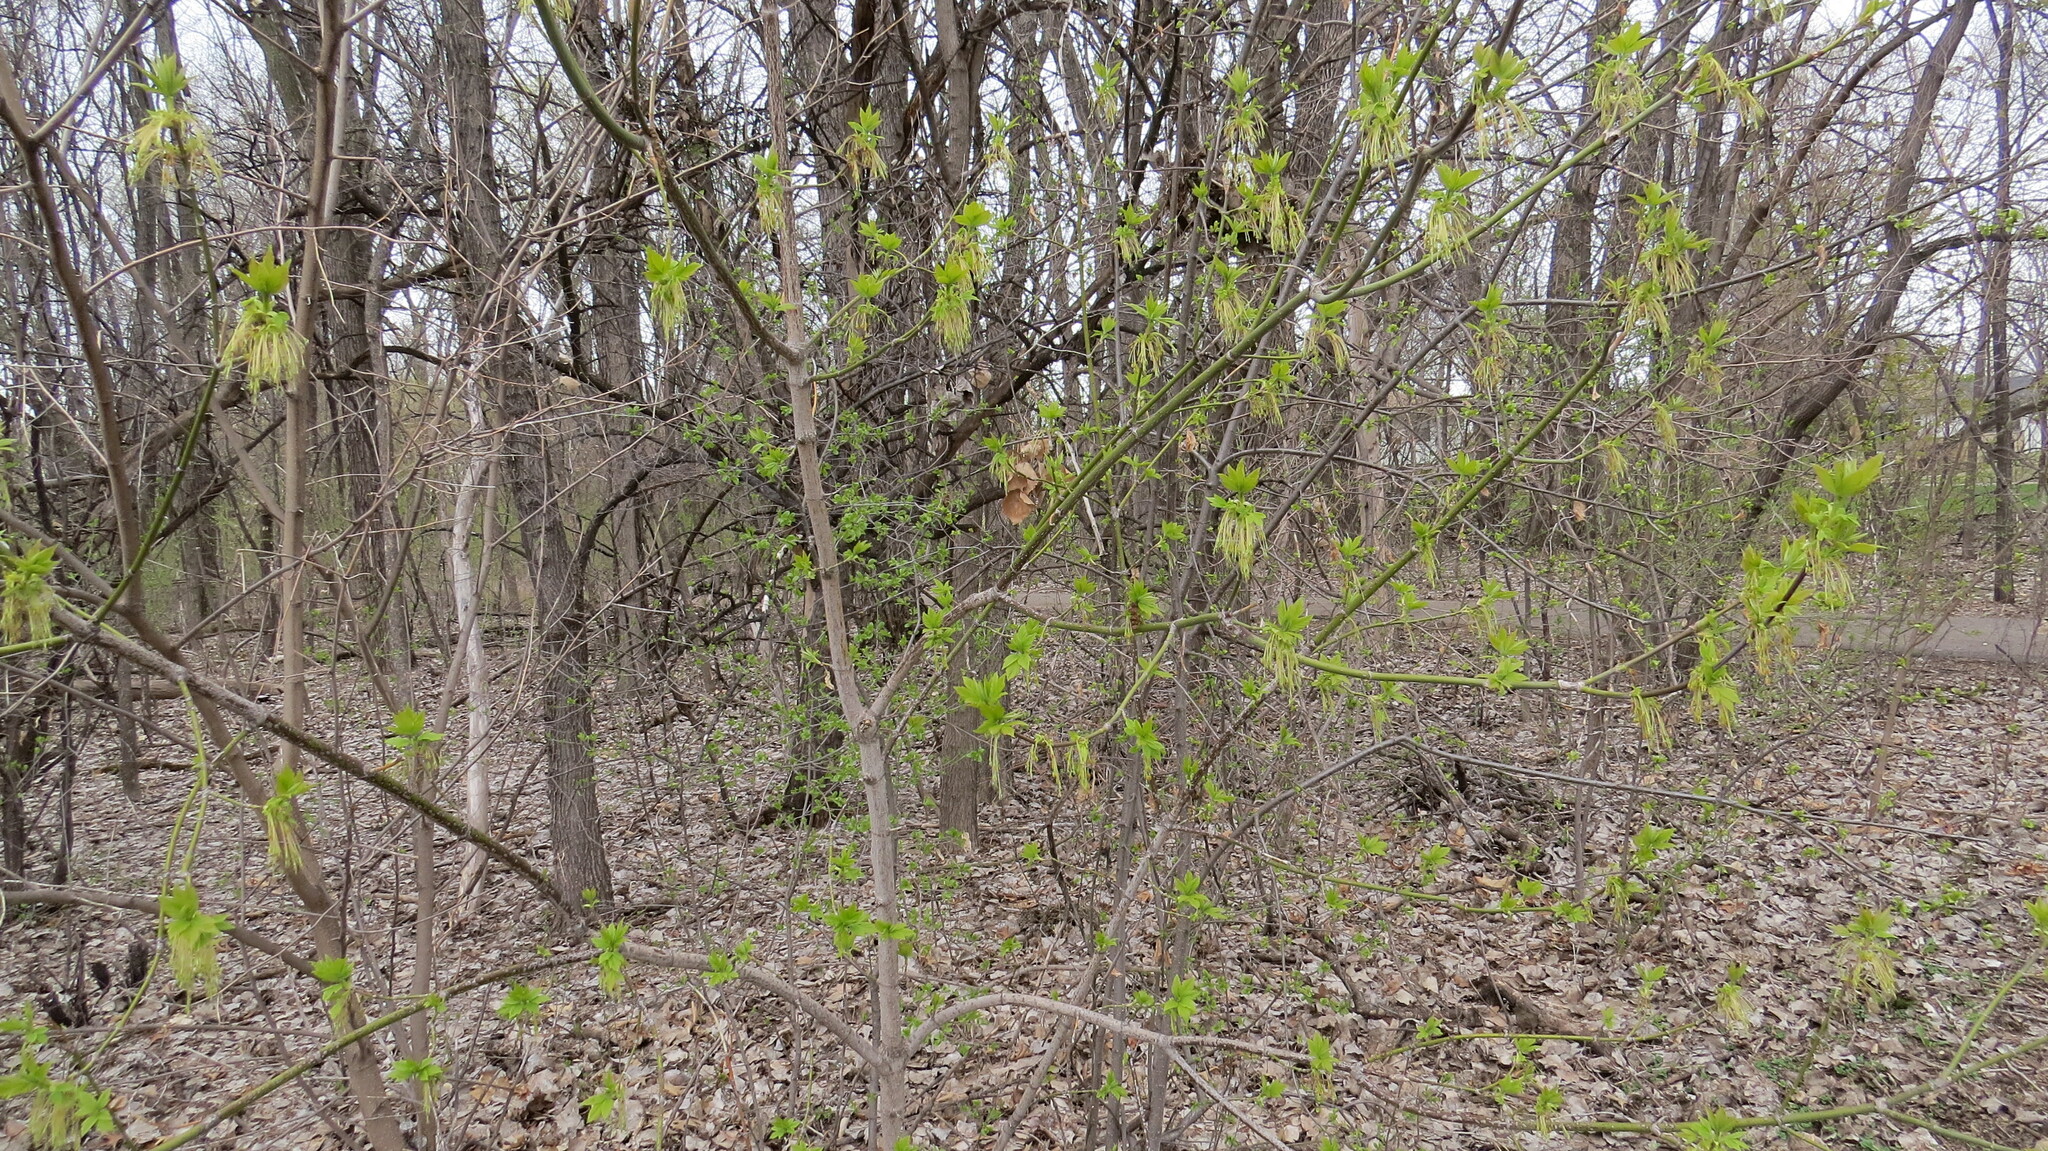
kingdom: Plantae
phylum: Tracheophyta
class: Magnoliopsida
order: Sapindales
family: Sapindaceae
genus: Acer
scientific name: Acer negundo
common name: Ashleaf maple
